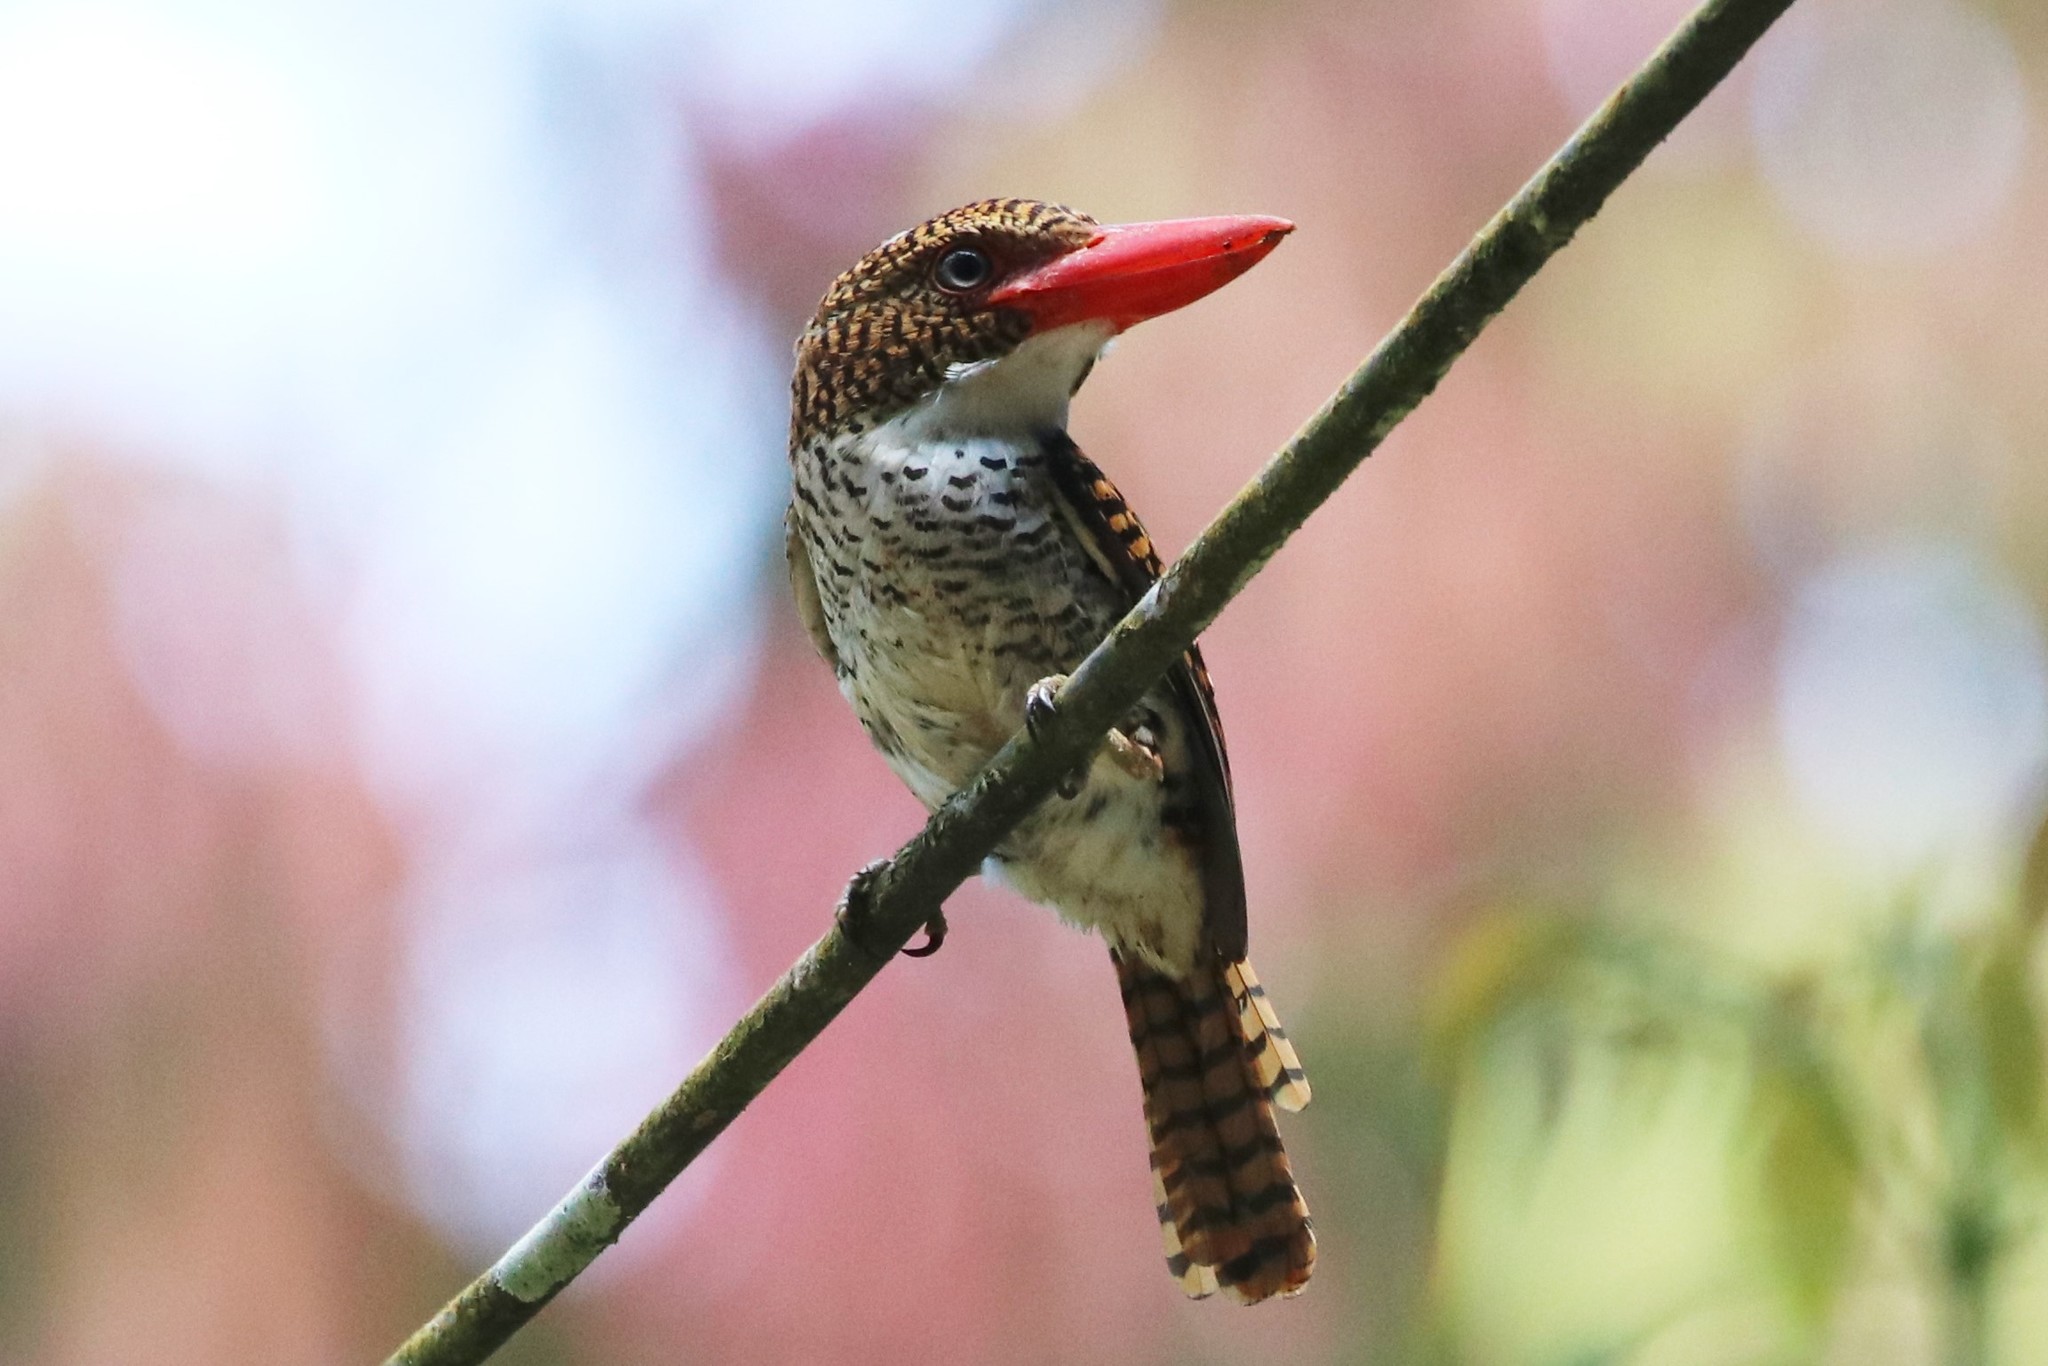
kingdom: Animalia
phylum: Chordata
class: Aves
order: Coraciiformes
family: Alcedinidae
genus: Lacedo
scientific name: Lacedo pulchella
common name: Banded kingfisher
